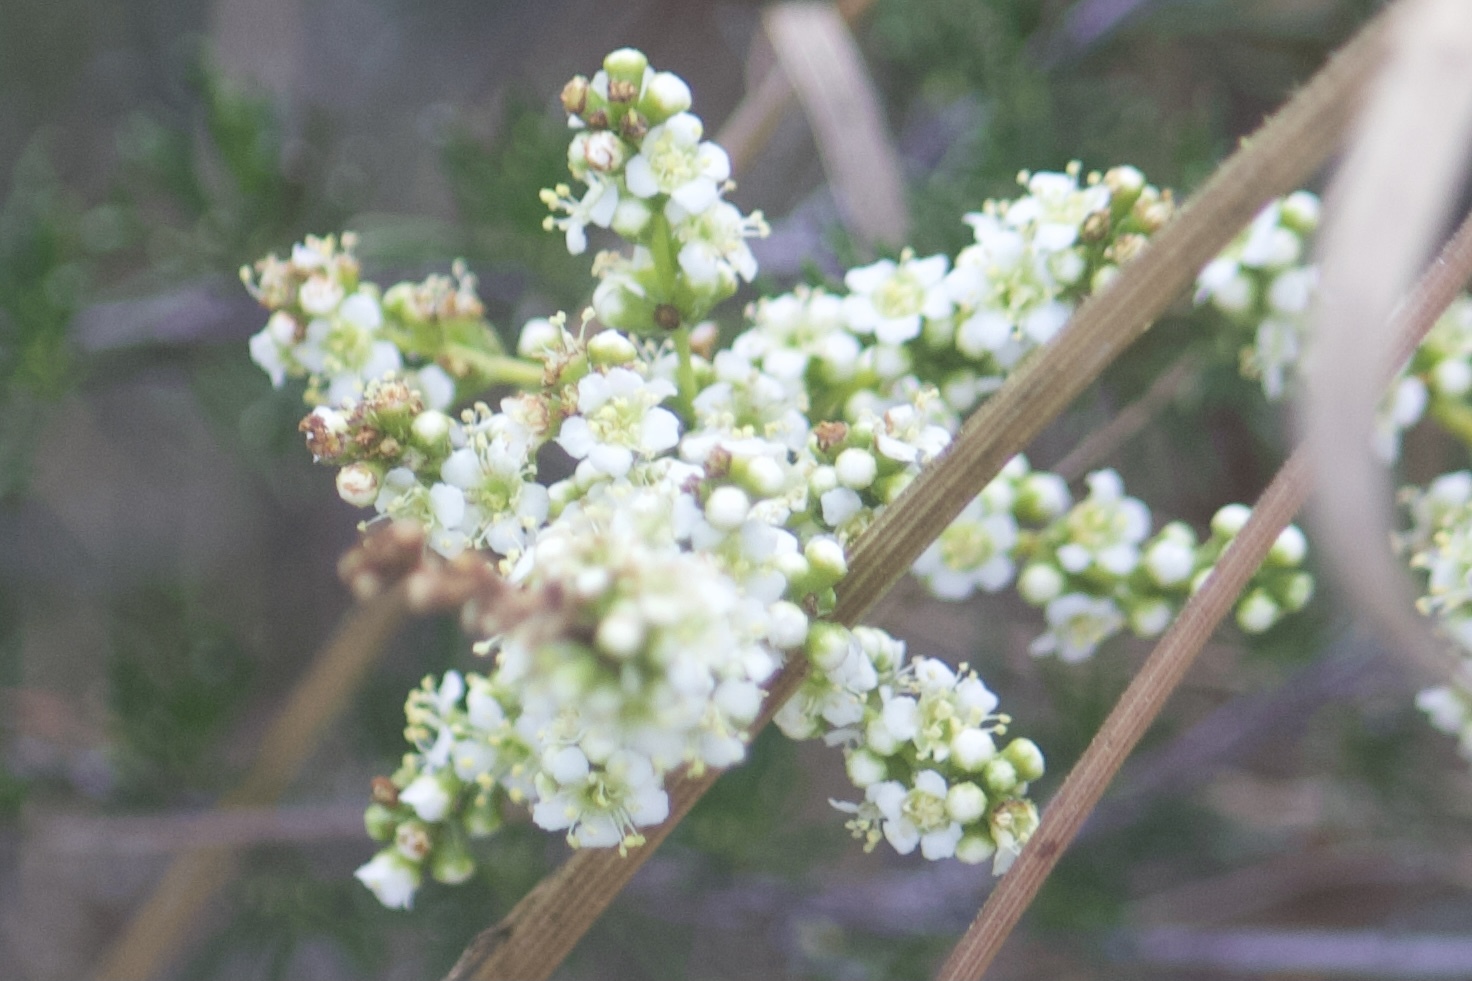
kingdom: Plantae
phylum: Tracheophyta
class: Magnoliopsida
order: Rosales
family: Rosaceae
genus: Adenostoma
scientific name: Adenostoma fasciculatum
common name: Chamise
